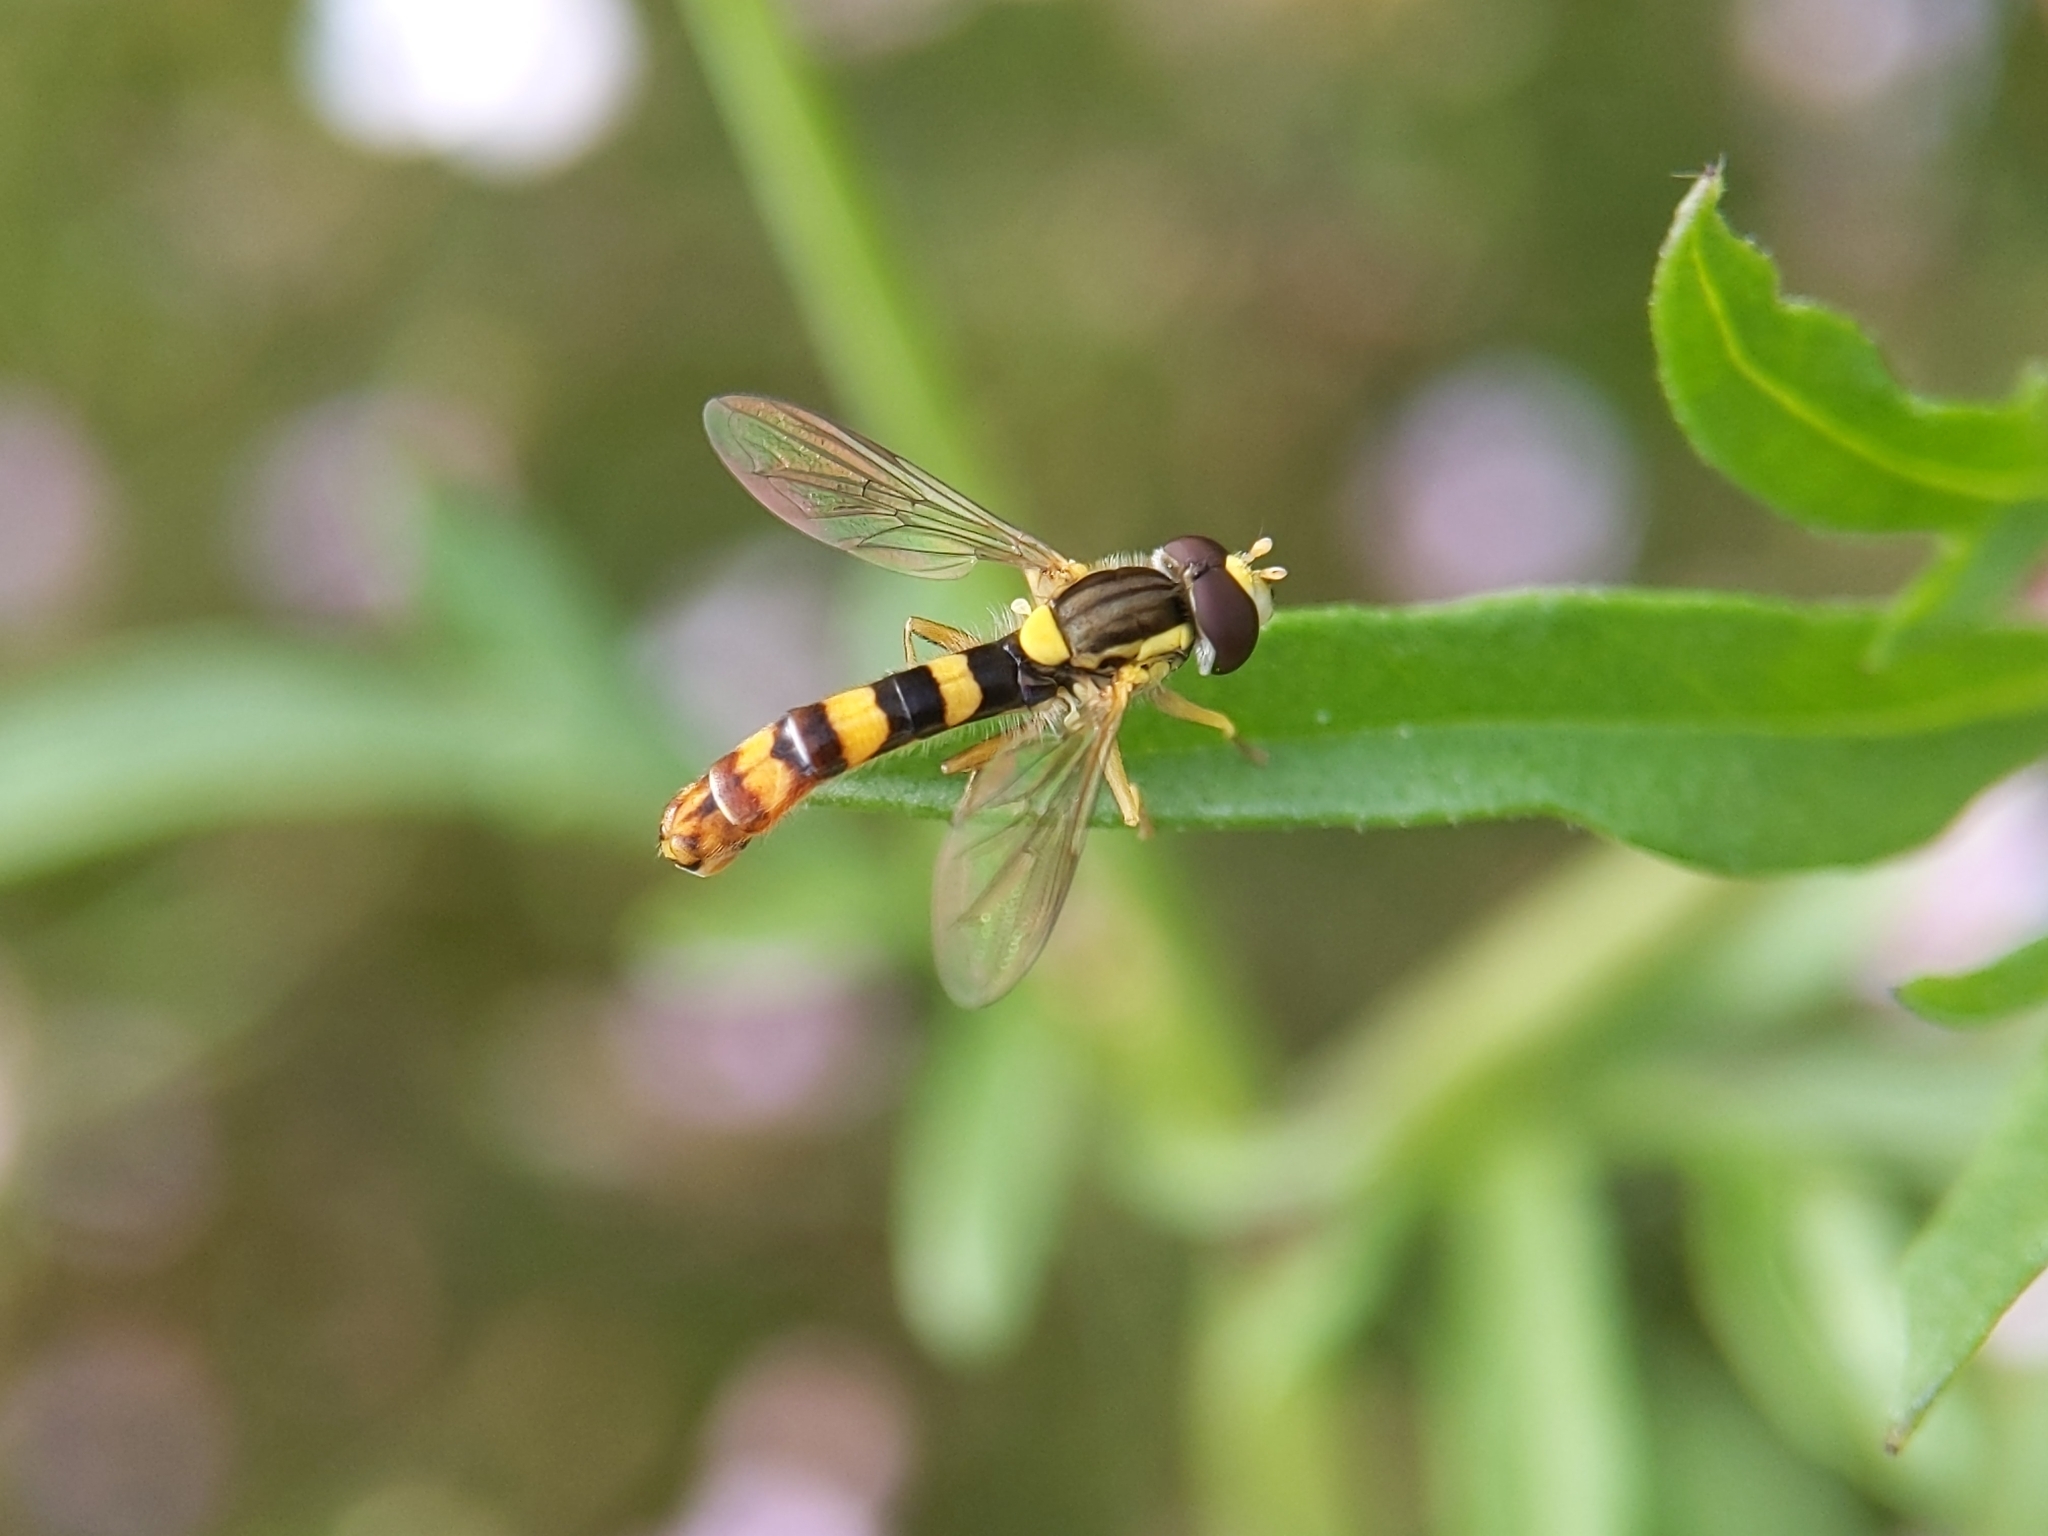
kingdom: Animalia
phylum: Arthropoda
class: Insecta
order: Diptera
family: Syrphidae
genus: Sphaerophoria
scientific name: Sphaerophoria scripta
